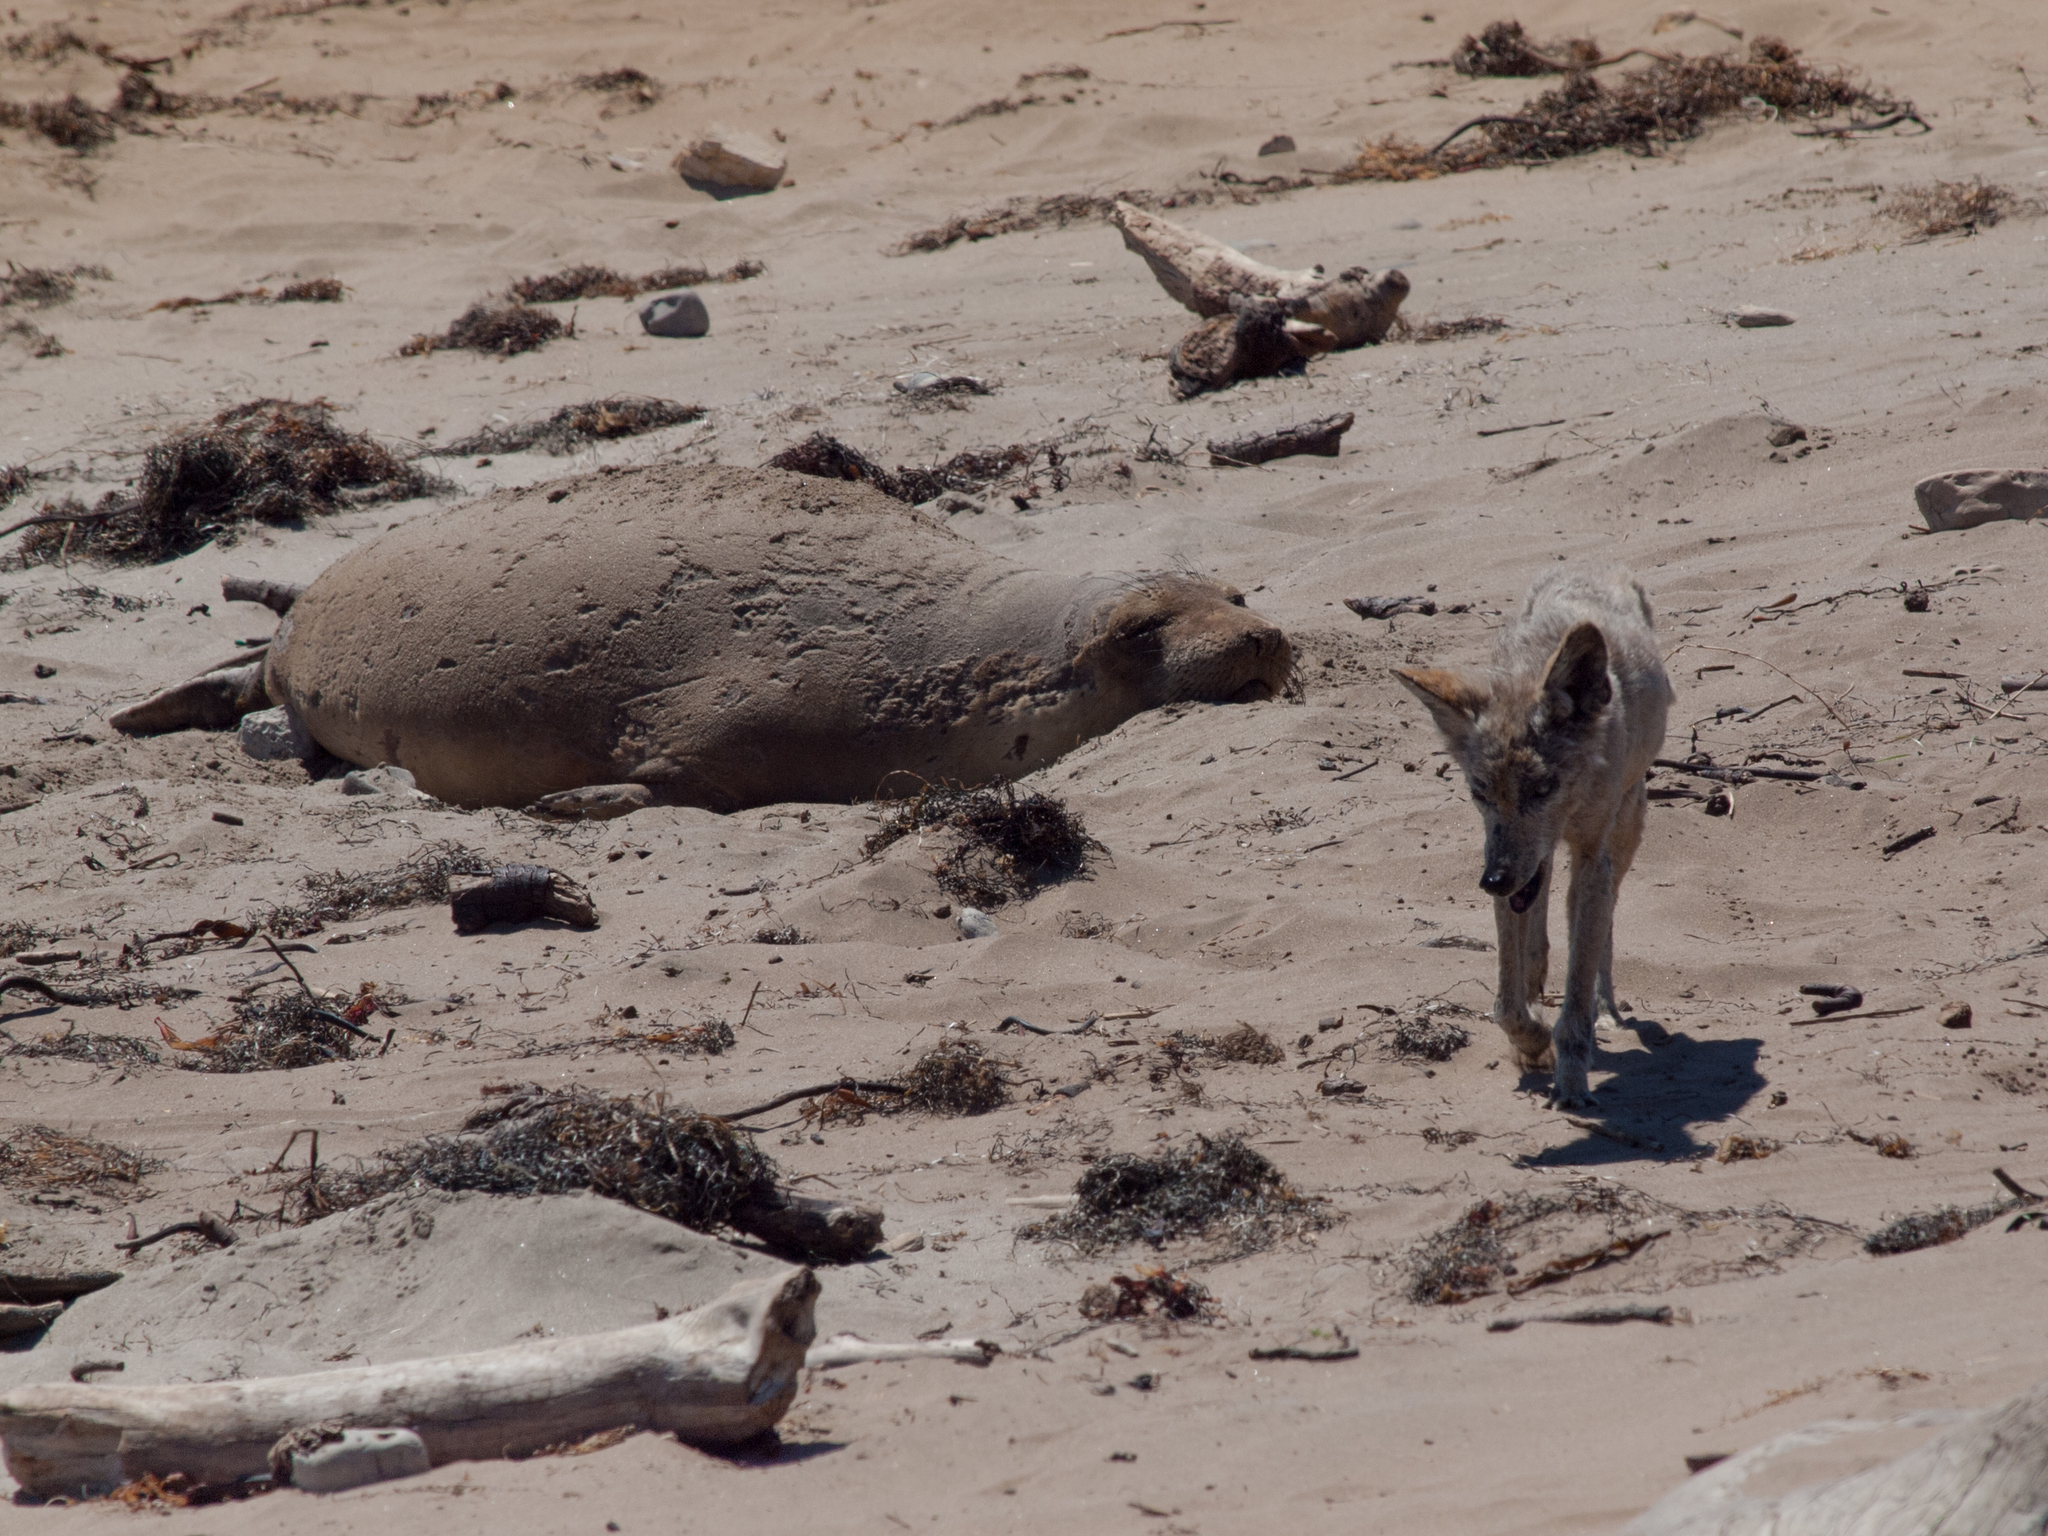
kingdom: Animalia
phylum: Chordata
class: Mammalia
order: Carnivora
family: Canidae
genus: Canis
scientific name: Canis latrans
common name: Coyote
